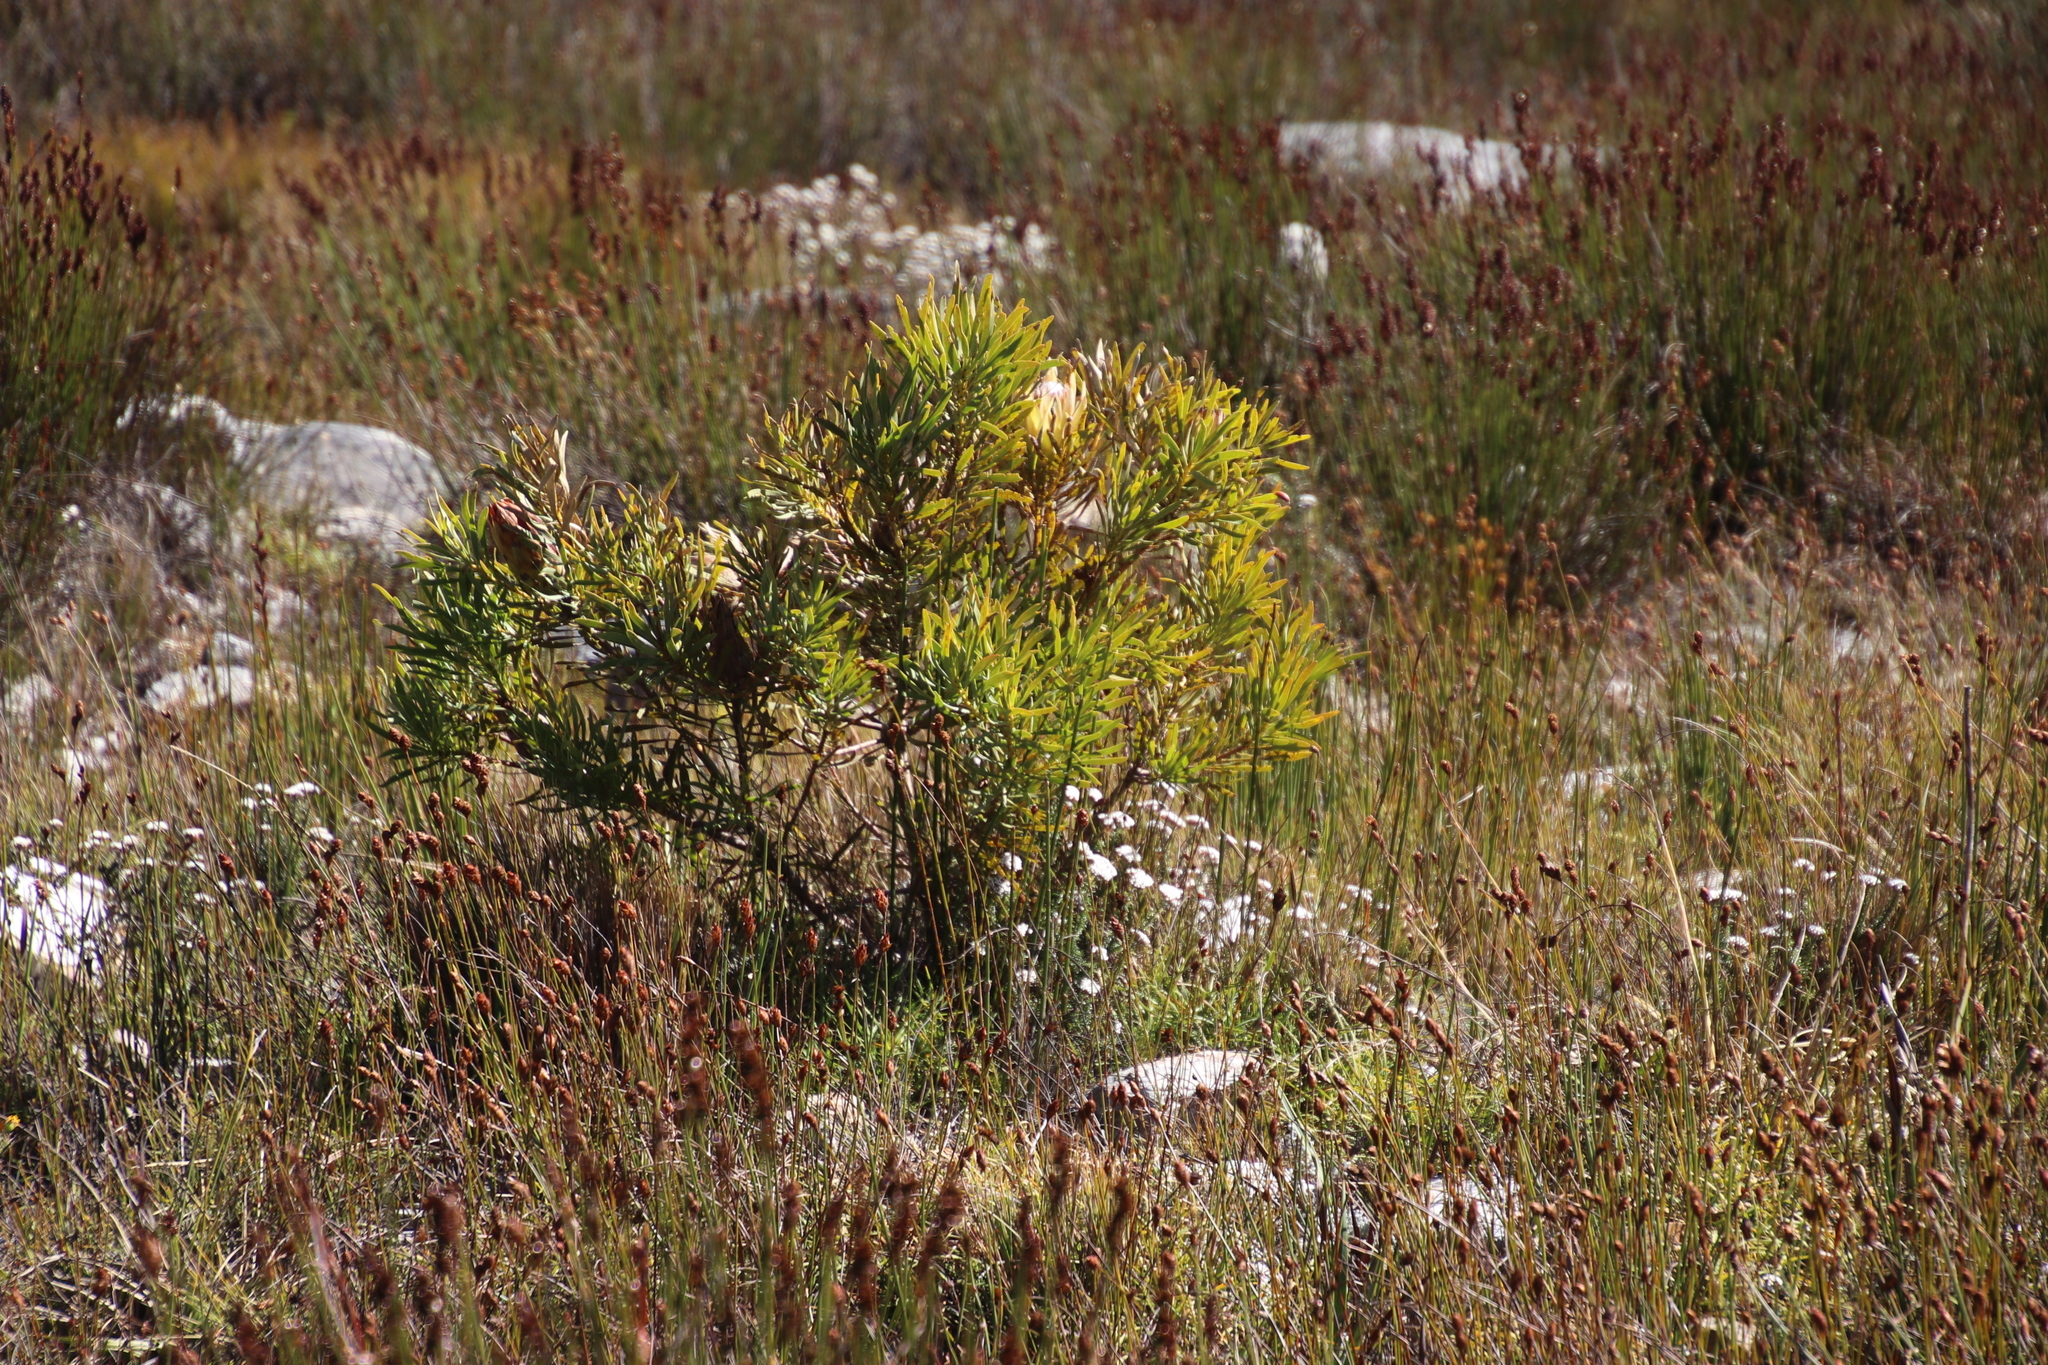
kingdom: Plantae
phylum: Tracheophyta
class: Magnoliopsida
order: Proteales
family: Proteaceae
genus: Protea
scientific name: Protea repens
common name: Sugarbush
